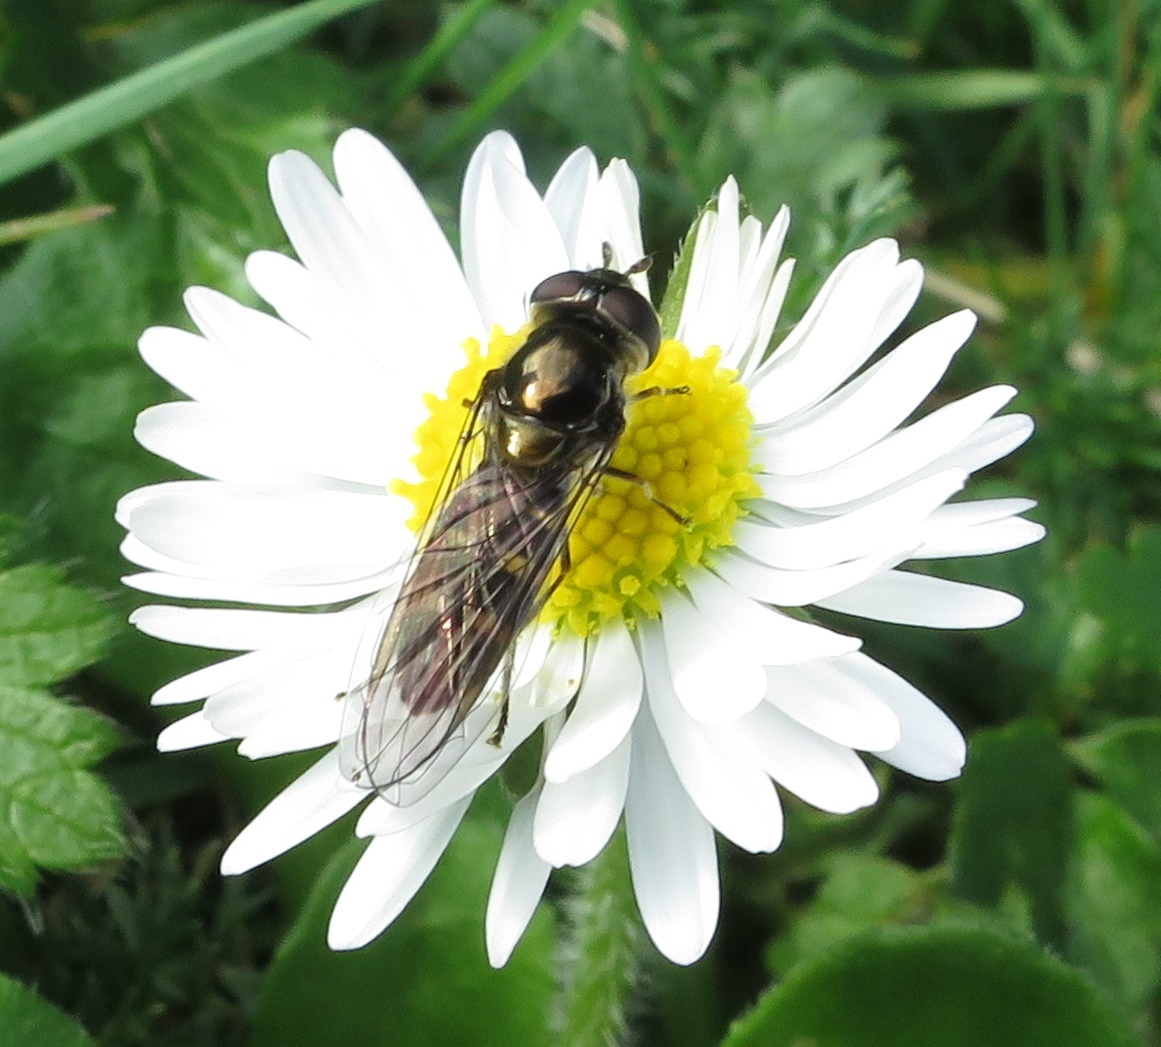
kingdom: Animalia
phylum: Arthropoda
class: Insecta
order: Diptera
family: Syrphidae
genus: Melangyna
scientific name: Melangyna novaezelandiae
